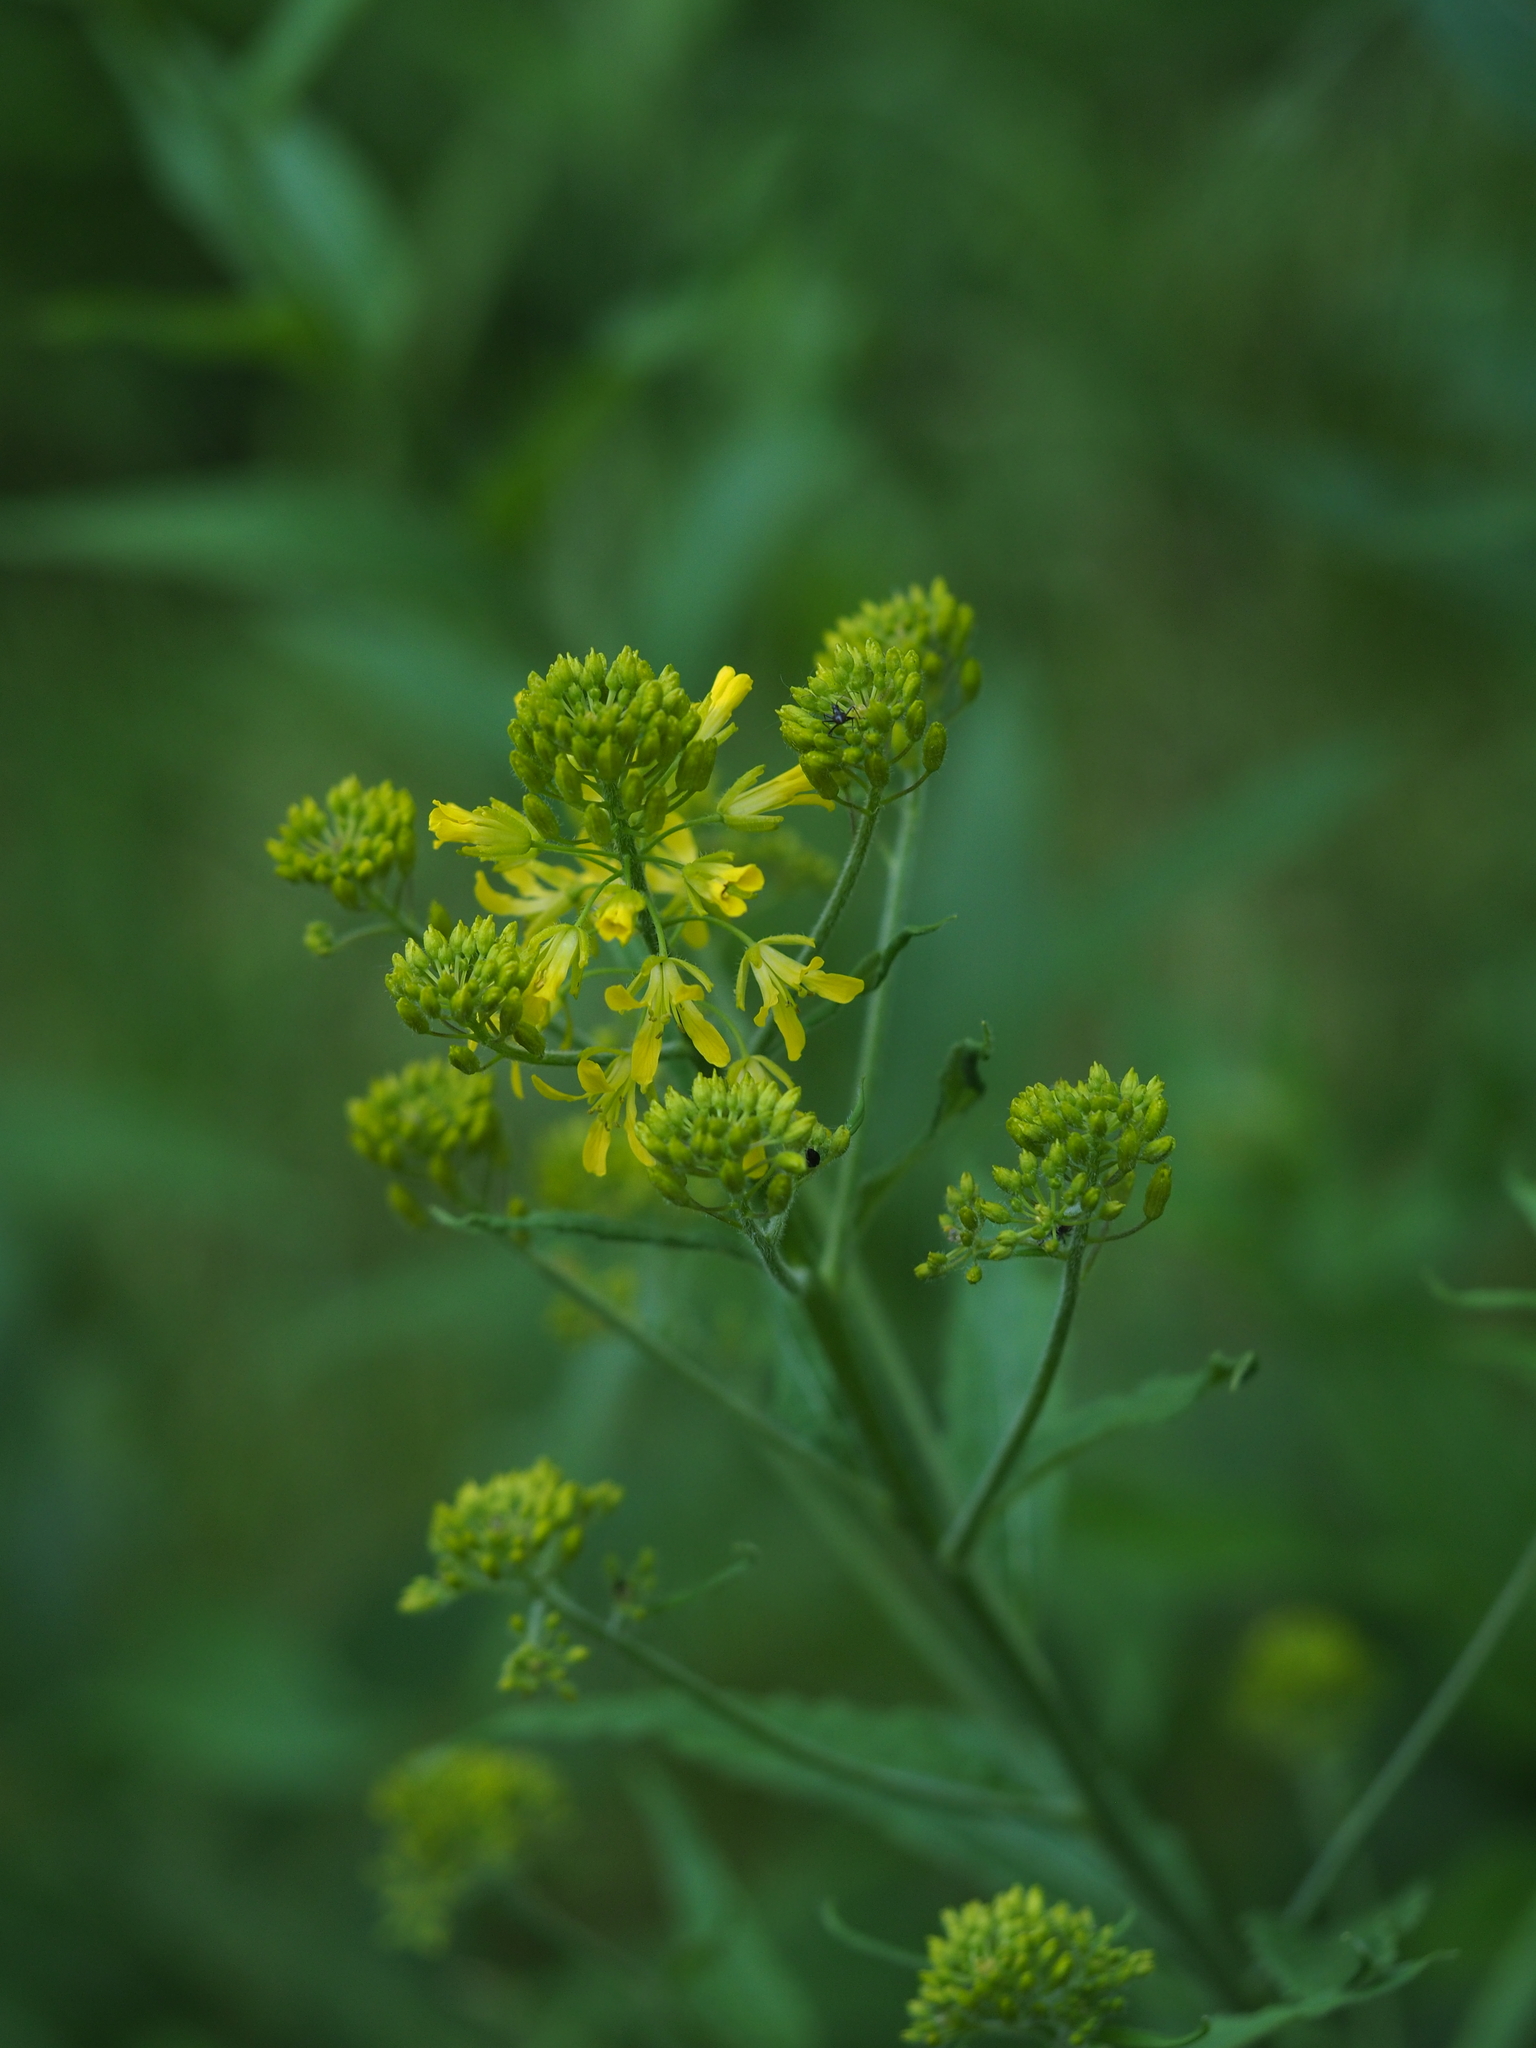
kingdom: Plantae
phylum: Tracheophyta
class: Magnoliopsida
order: Brassicales
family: Brassicaceae
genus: Sisymbrium
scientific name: Sisymbrium strictissimum
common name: Perennial rocket
